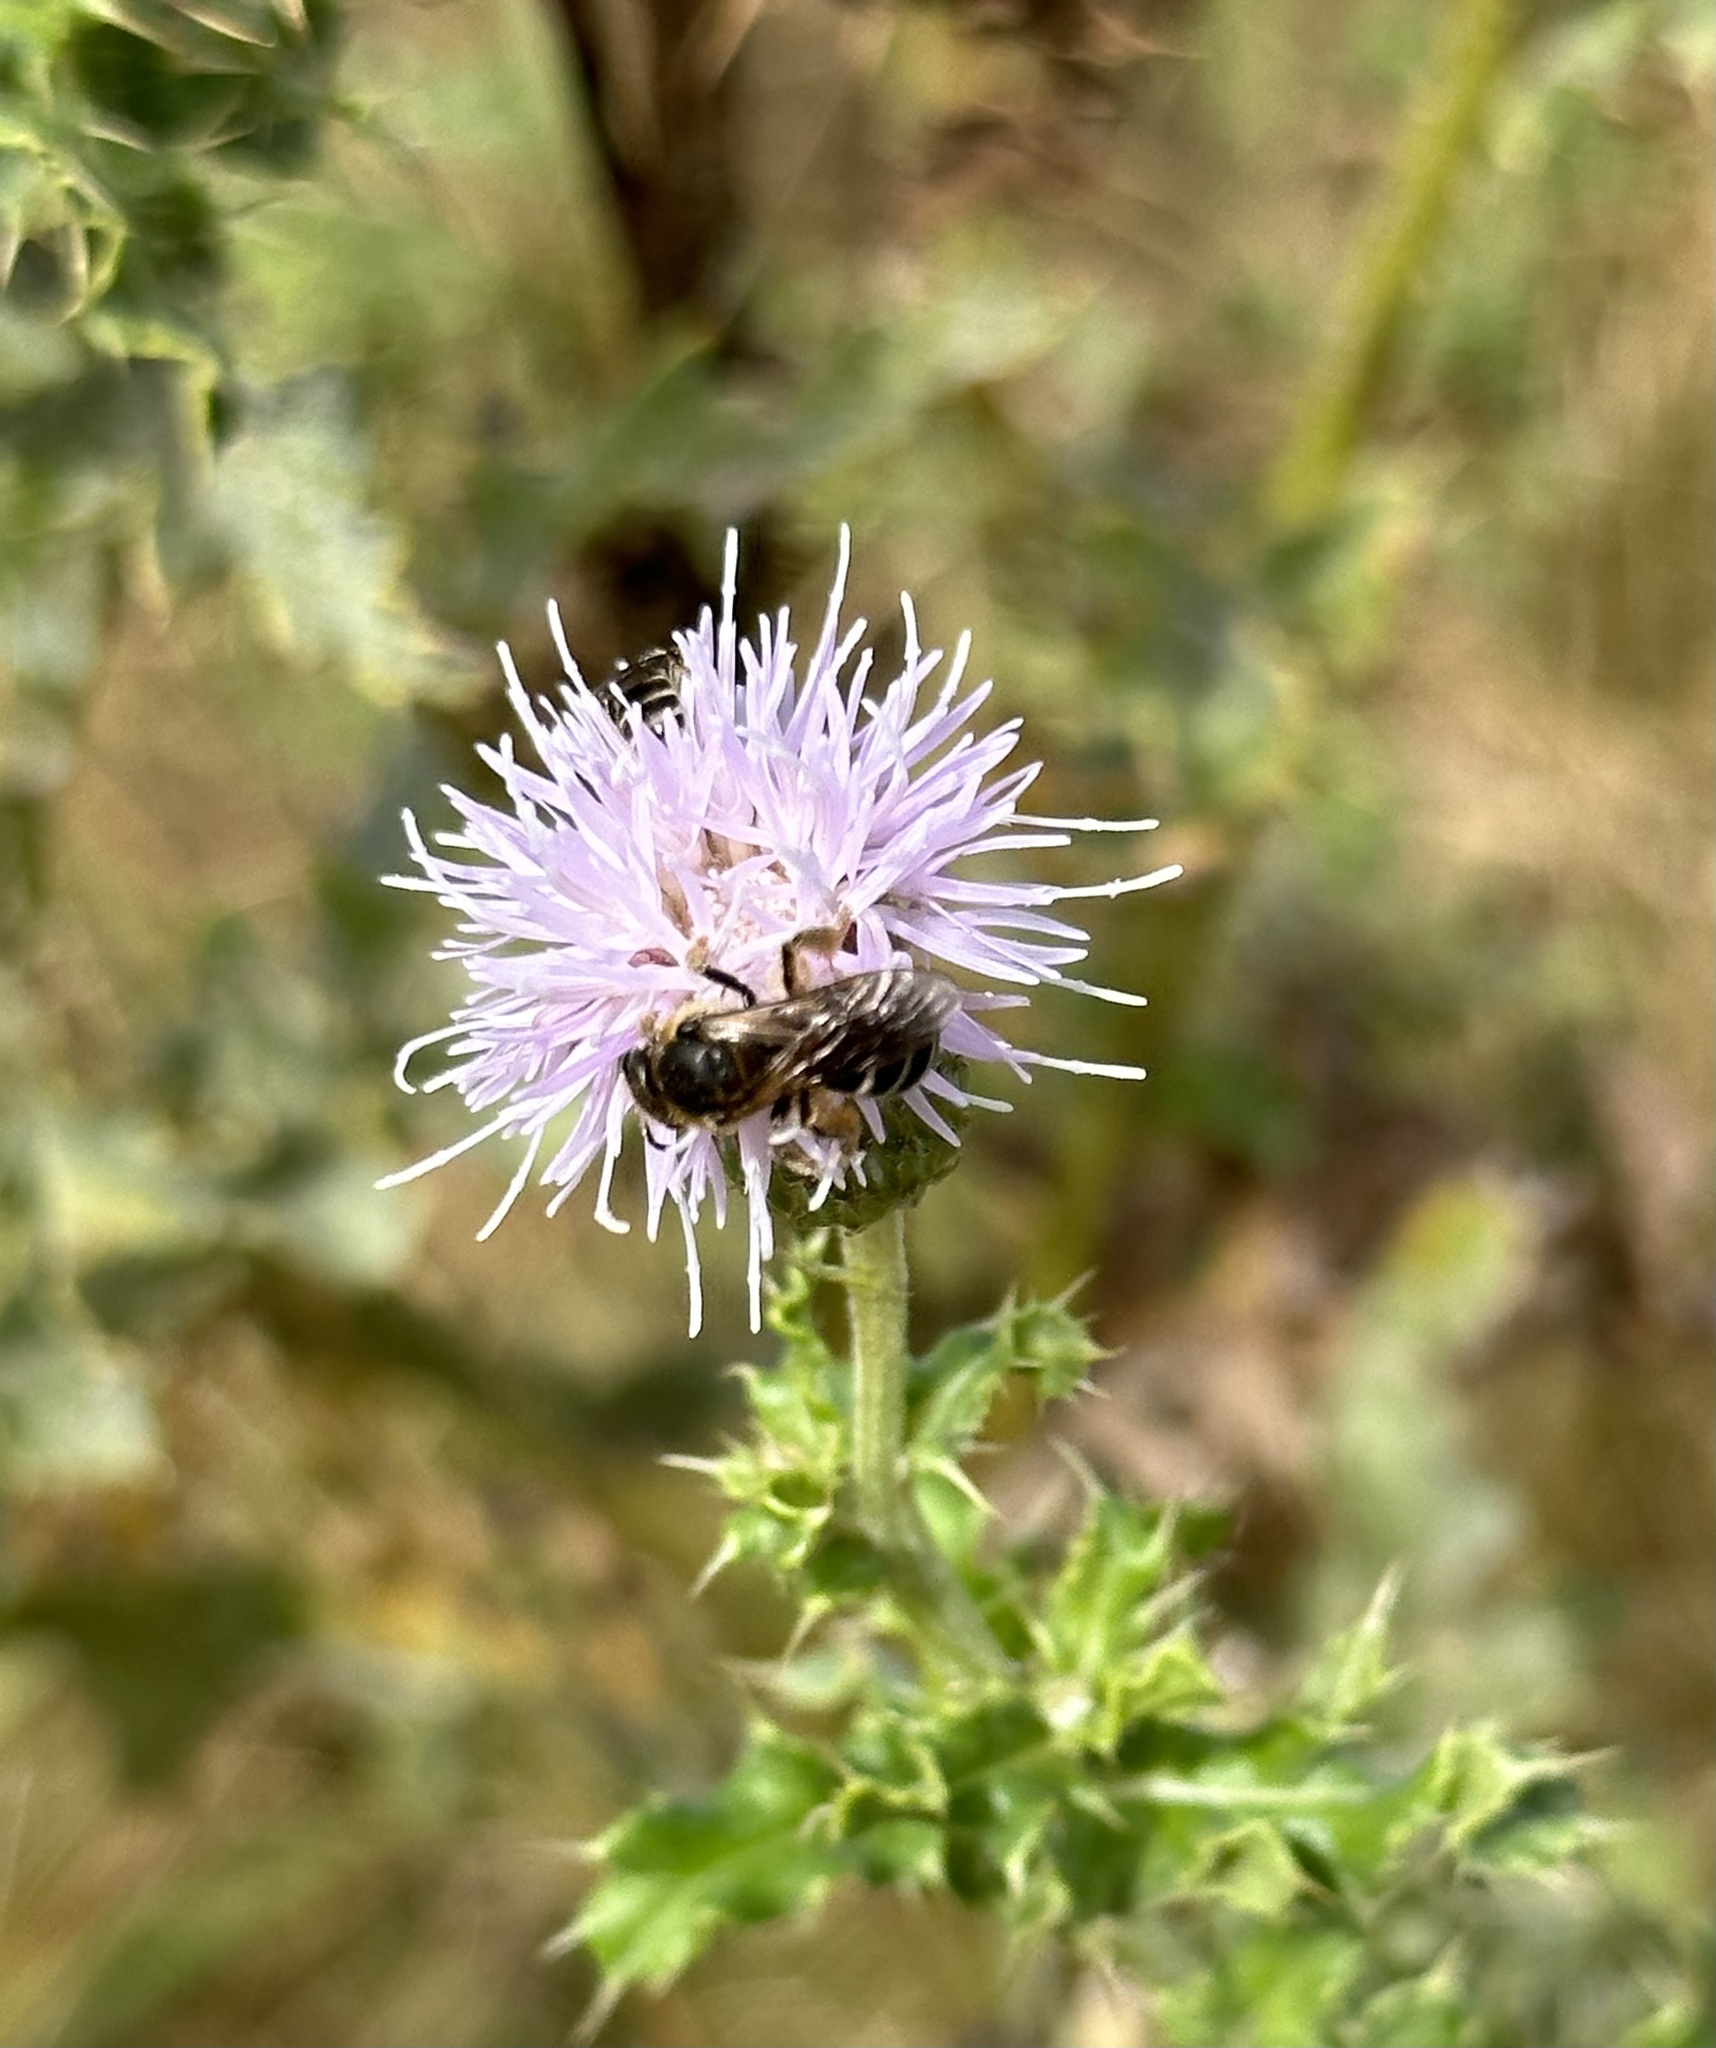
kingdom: Plantae
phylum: Tracheophyta
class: Magnoliopsida
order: Asterales
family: Asteraceae
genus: Cirsium
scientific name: Cirsium arvense
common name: Creeping thistle
